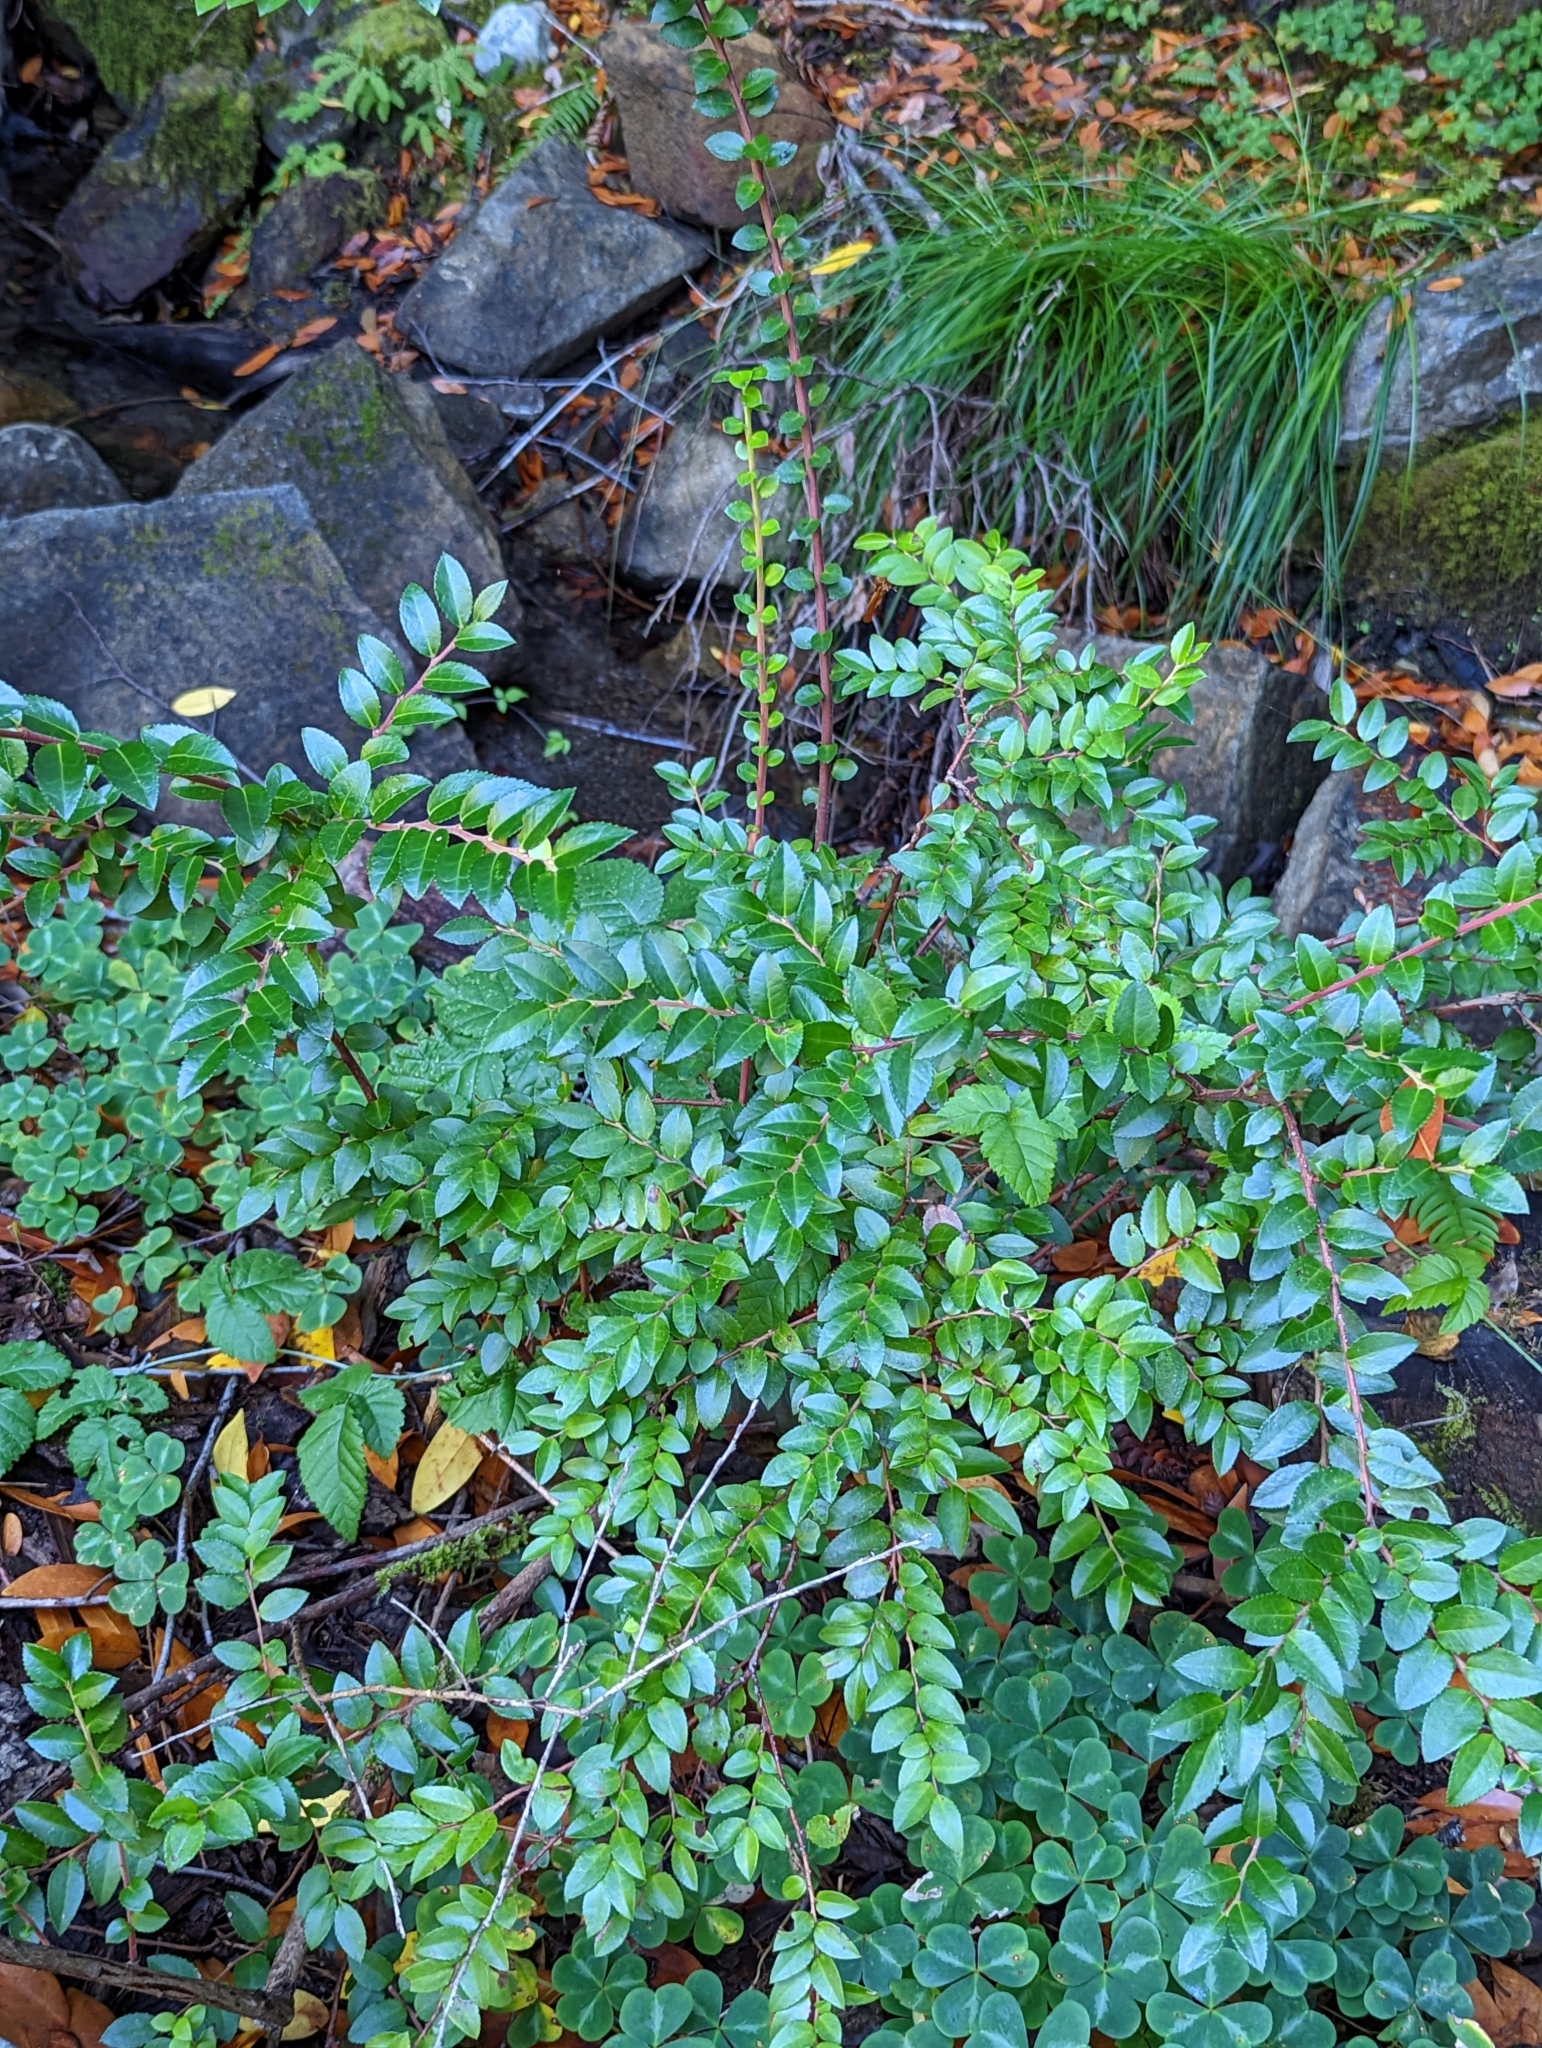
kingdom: Plantae
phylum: Tracheophyta
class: Magnoliopsida
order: Ericales
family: Ericaceae
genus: Vaccinium
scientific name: Vaccinium ovatum
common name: California-huckleberry
